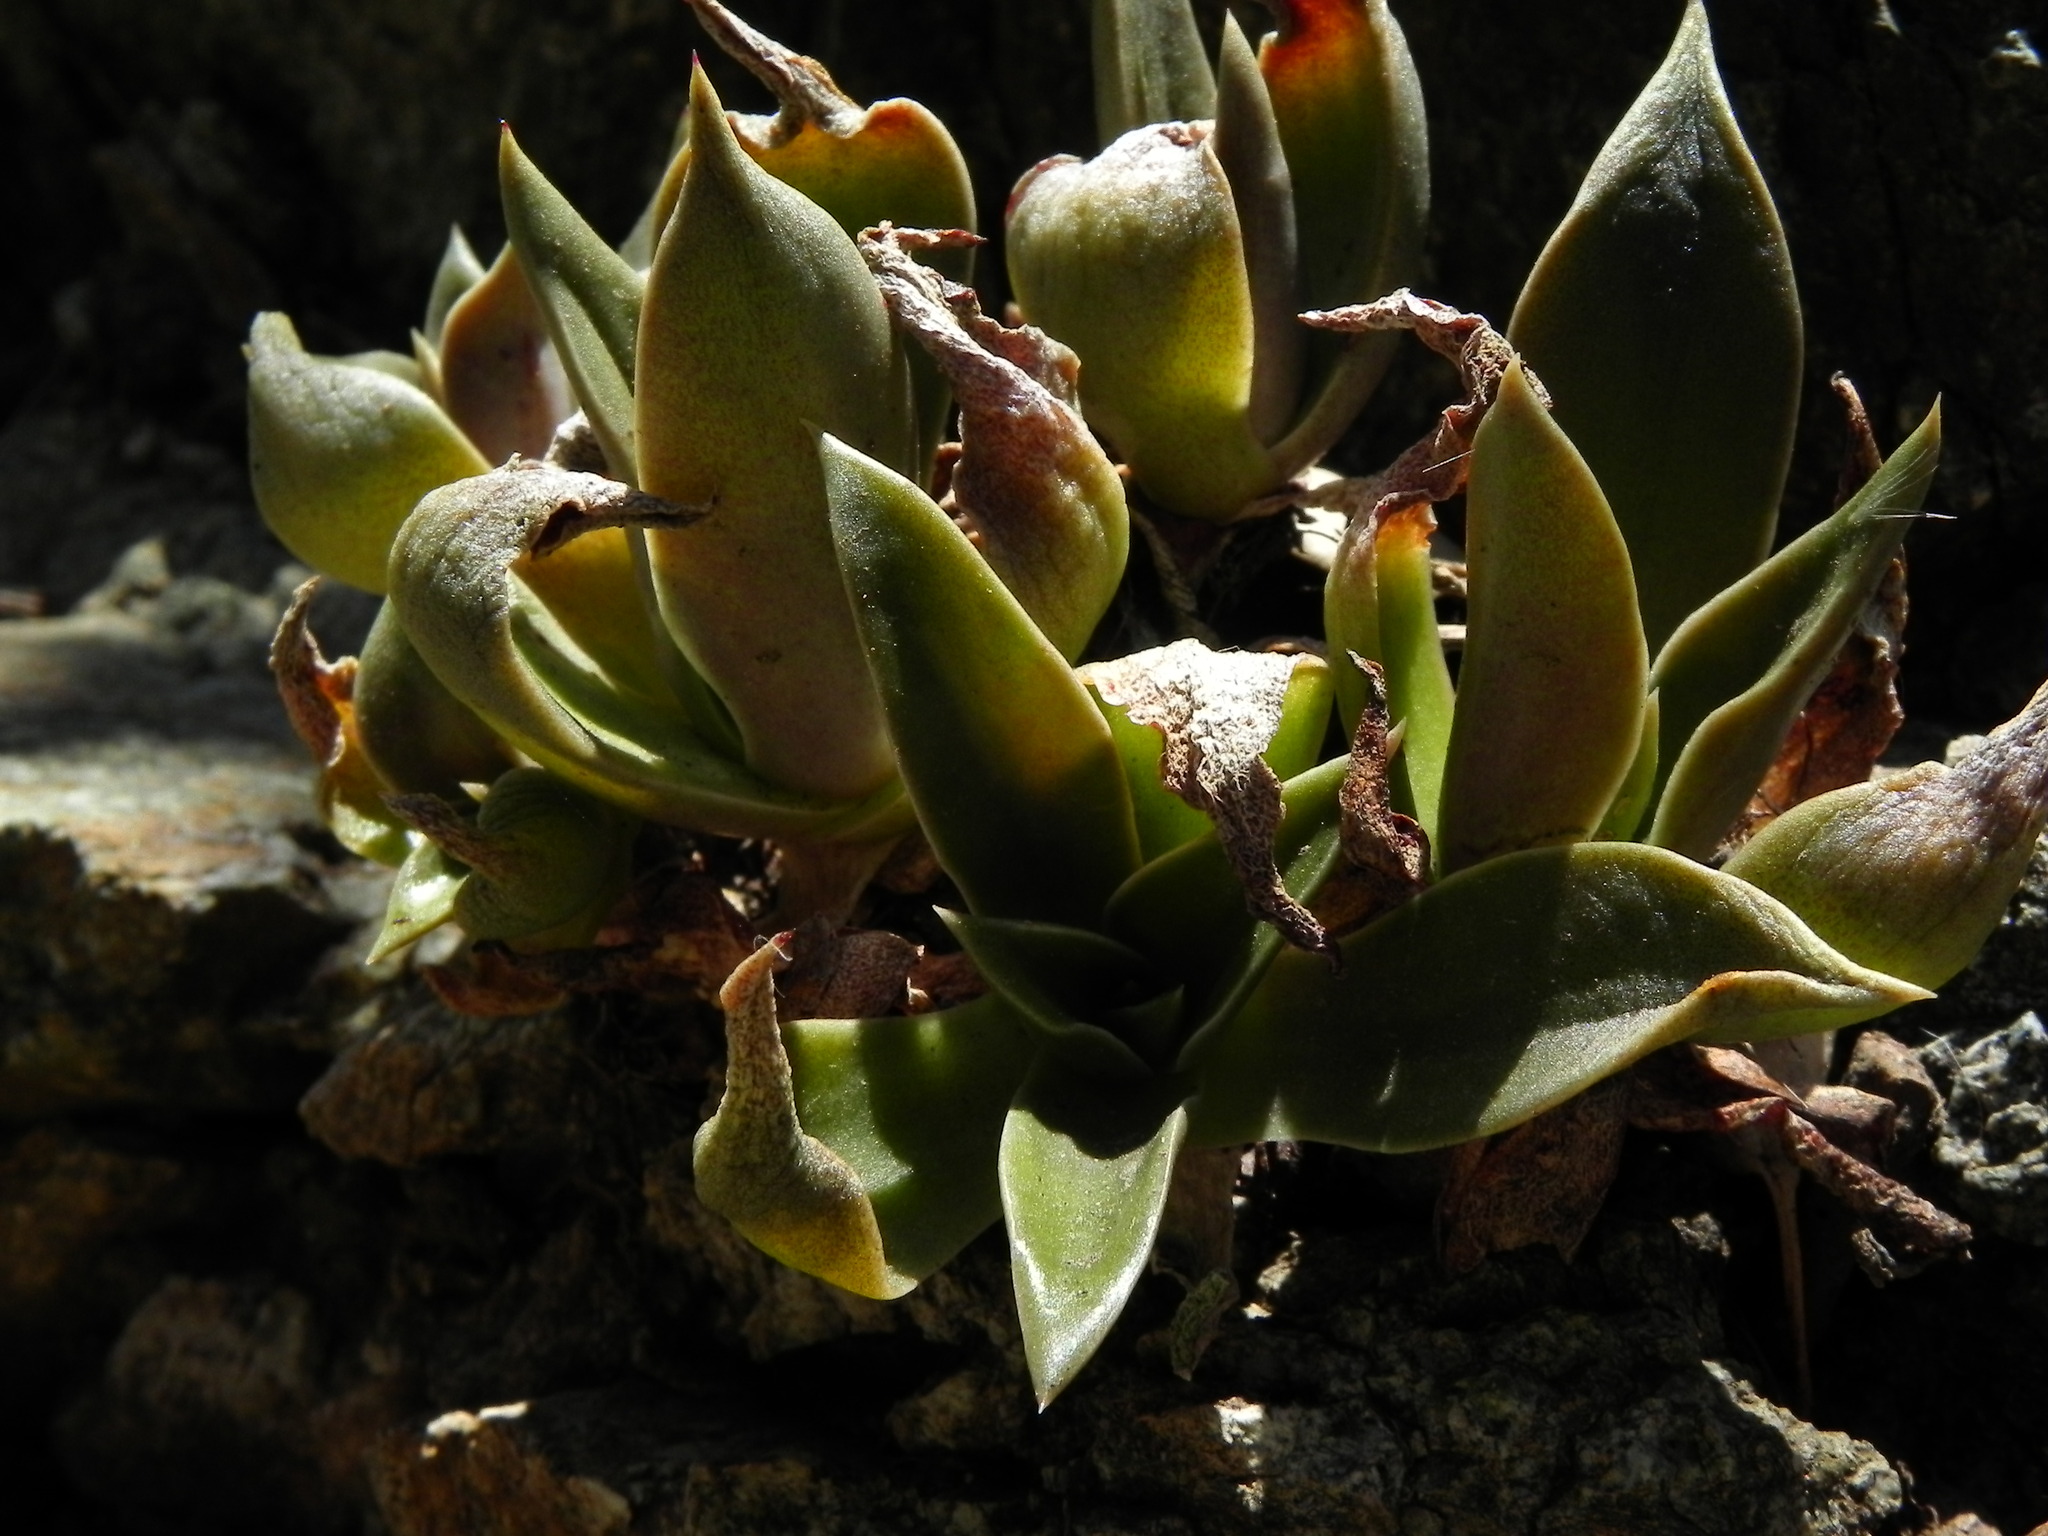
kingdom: Plantae
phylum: Tracheophyta
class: Magnoliopsida
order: Saxifragales
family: Crassulaceae
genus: Dudleya
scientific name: Dudleya cymosa
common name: Canyon dudleya
